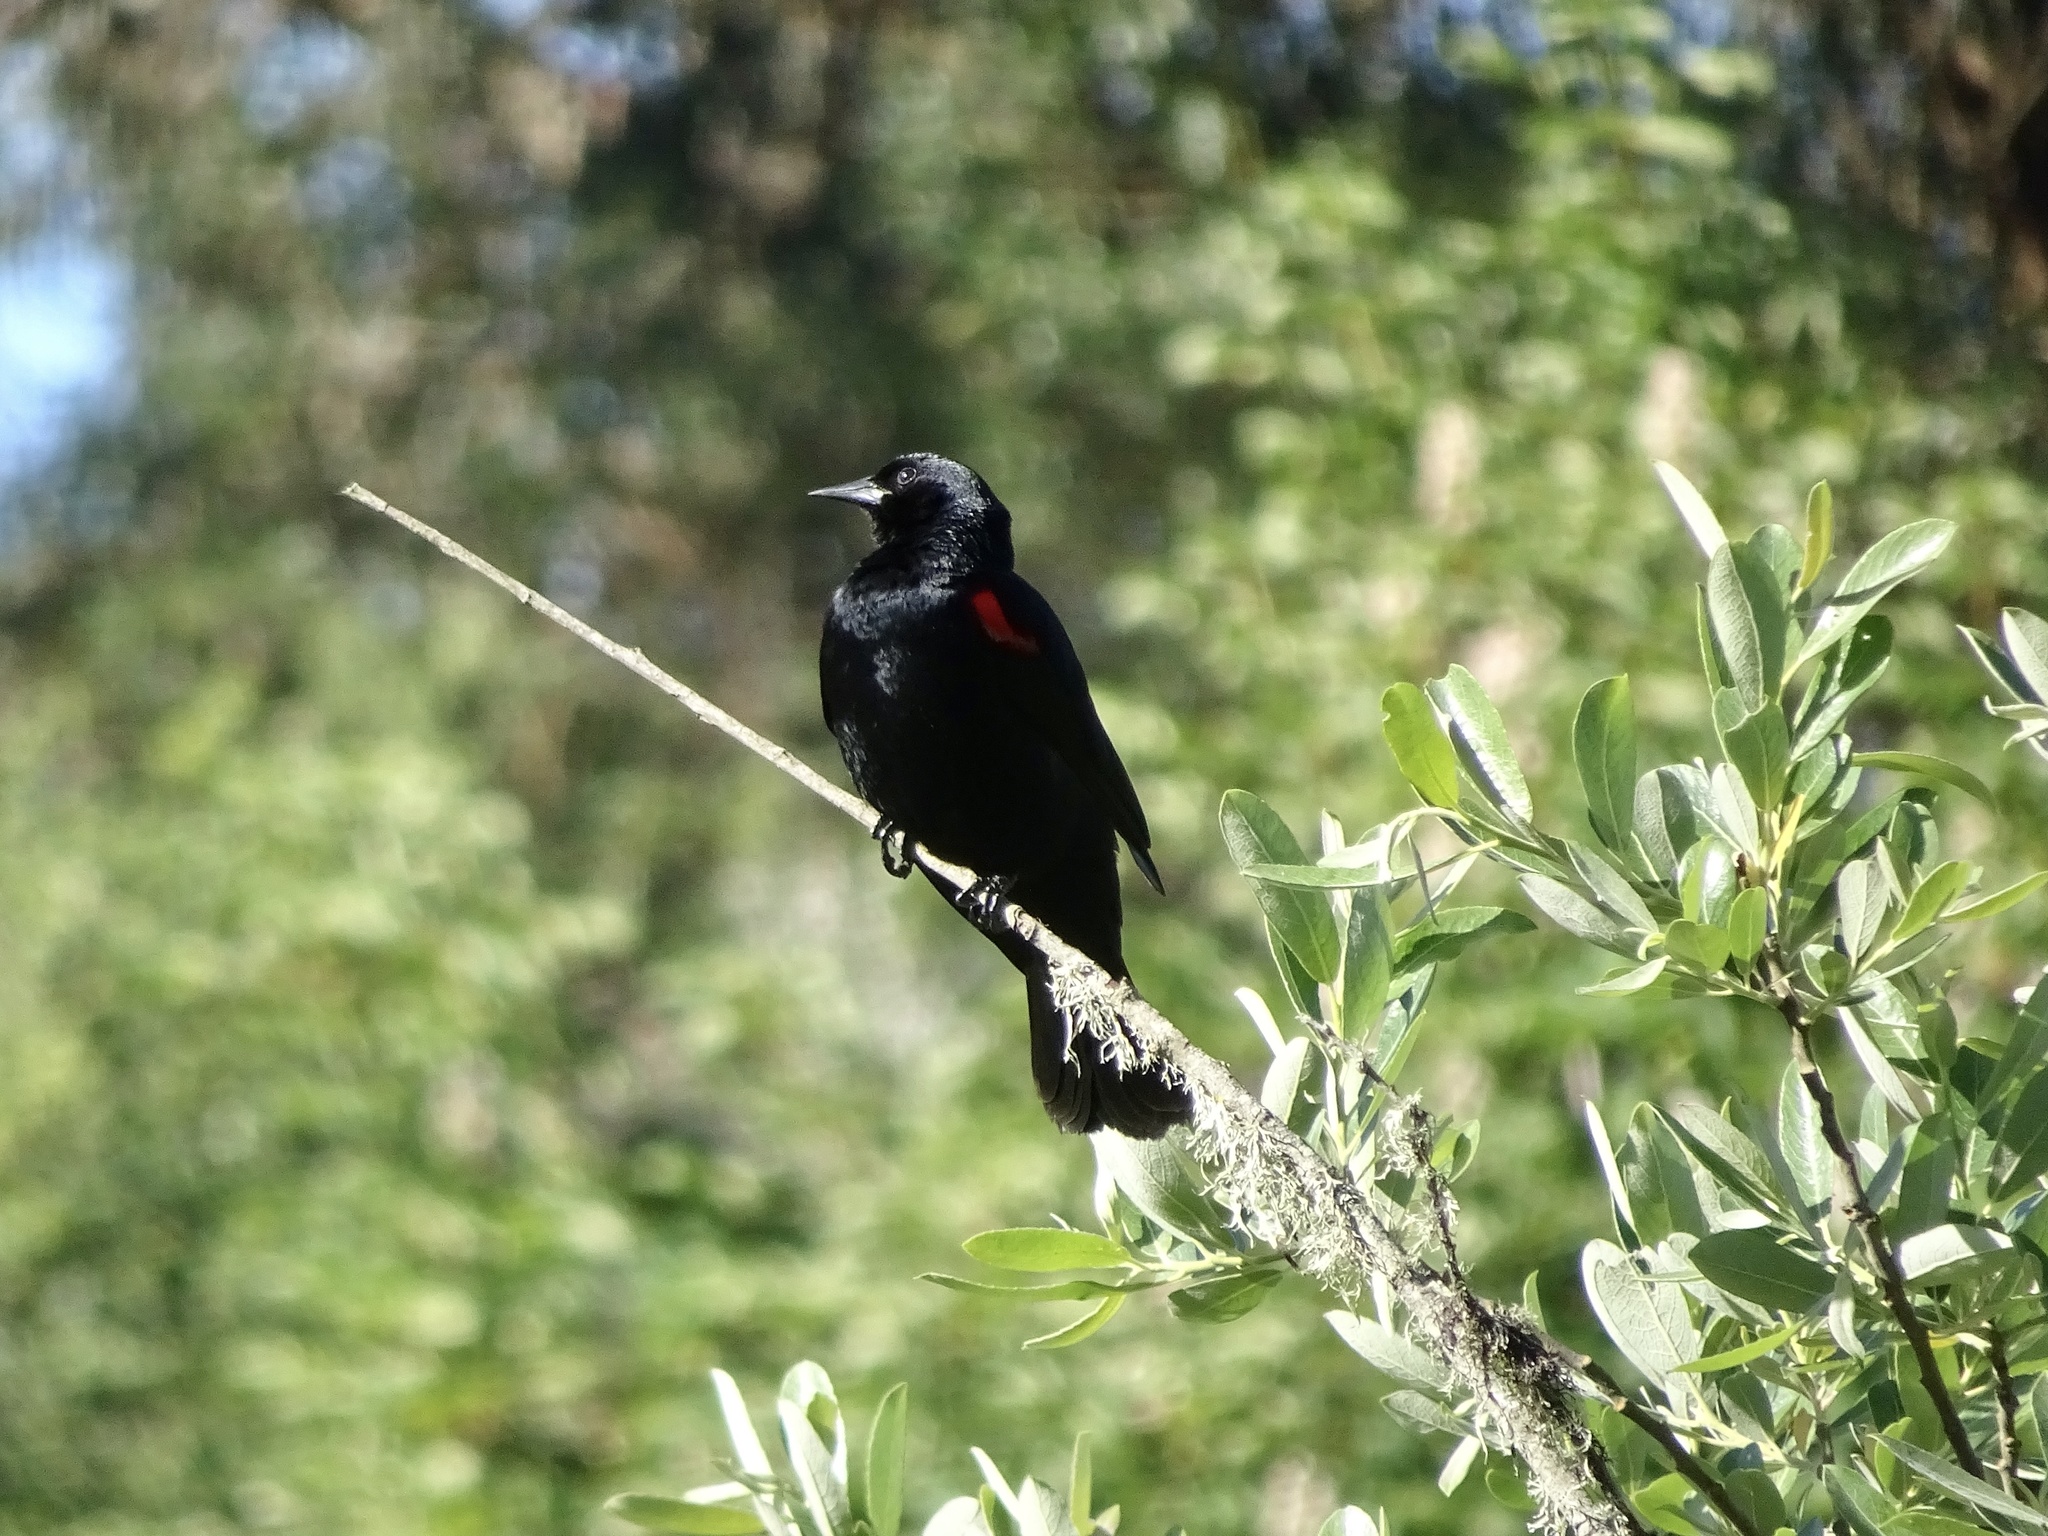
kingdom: Animalia
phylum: Chordata
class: Aves
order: Passeriformes
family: Icteridae
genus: Agelaius
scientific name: Agelaius phoeniceus
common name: Red-winged blackbird
